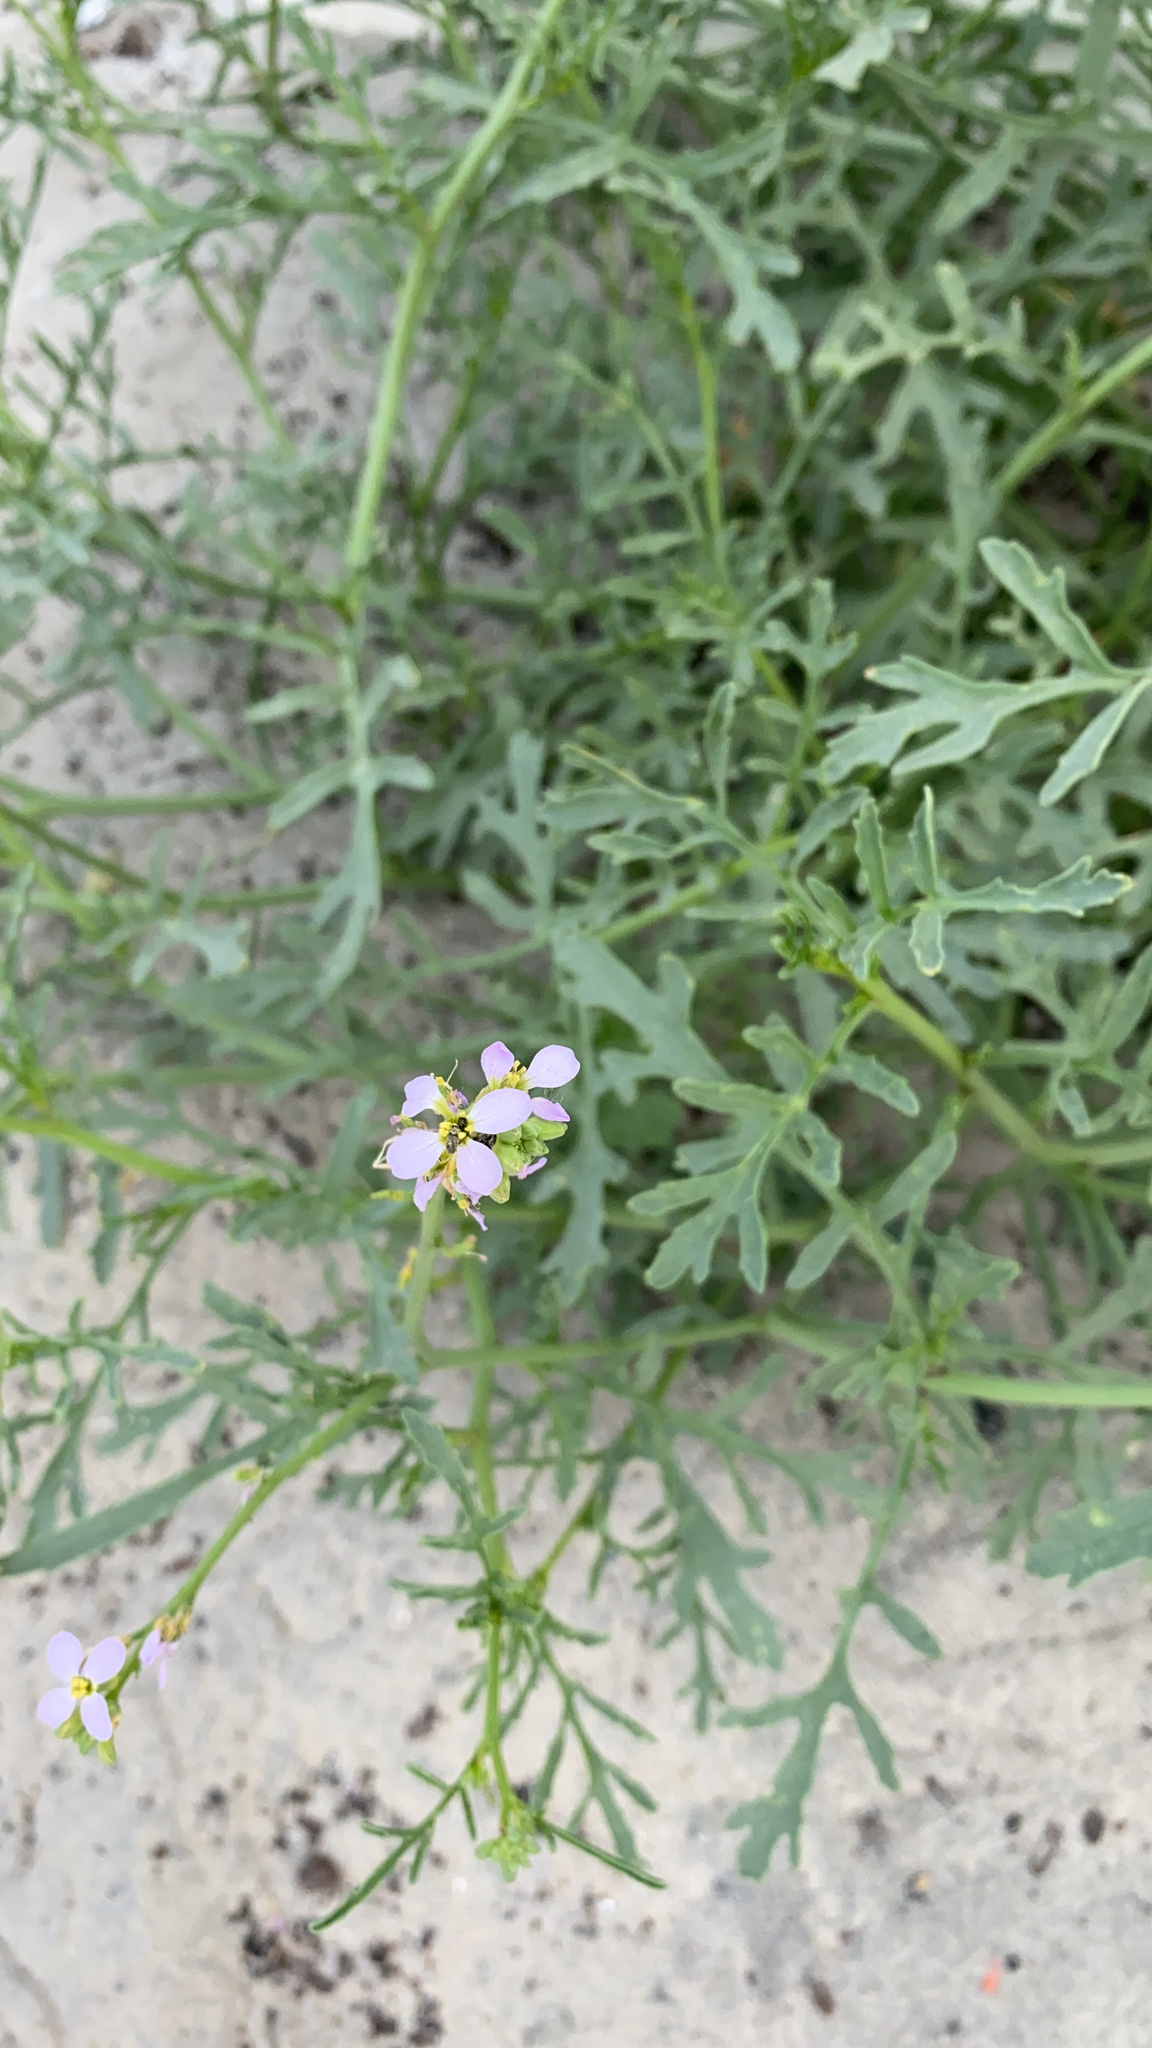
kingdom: Plantae
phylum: Tracheophyta
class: Magnoliopsida
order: Brassicales
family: Brassicaceae
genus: Cakile
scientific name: Cakile maritima
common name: Sea rocket
